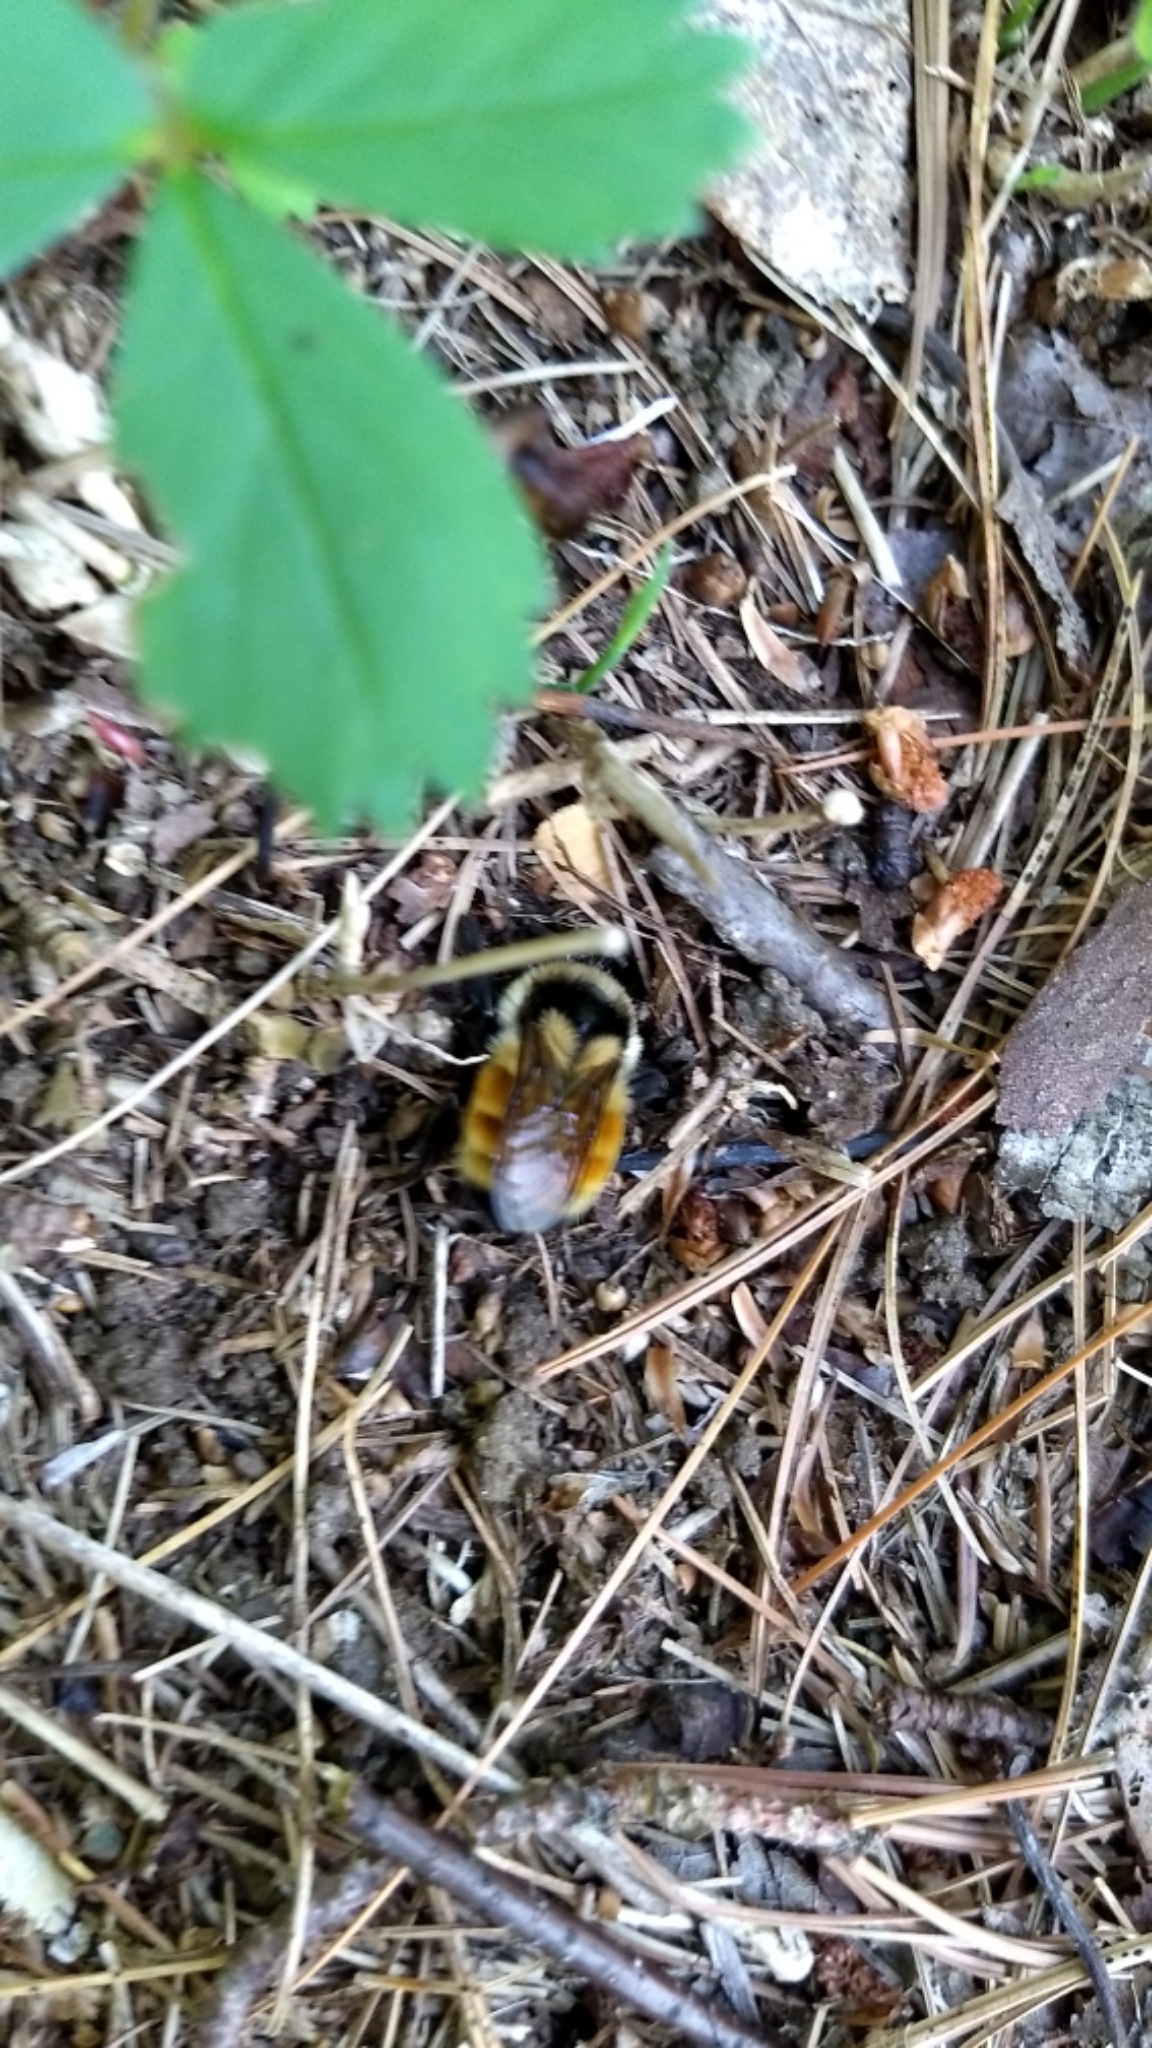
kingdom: Animalia
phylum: Arthropoda
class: Insecta
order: Hymenoptera
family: Apidae
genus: Bombus
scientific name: Bombus ternarius
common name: Tri-colored bumble bee
